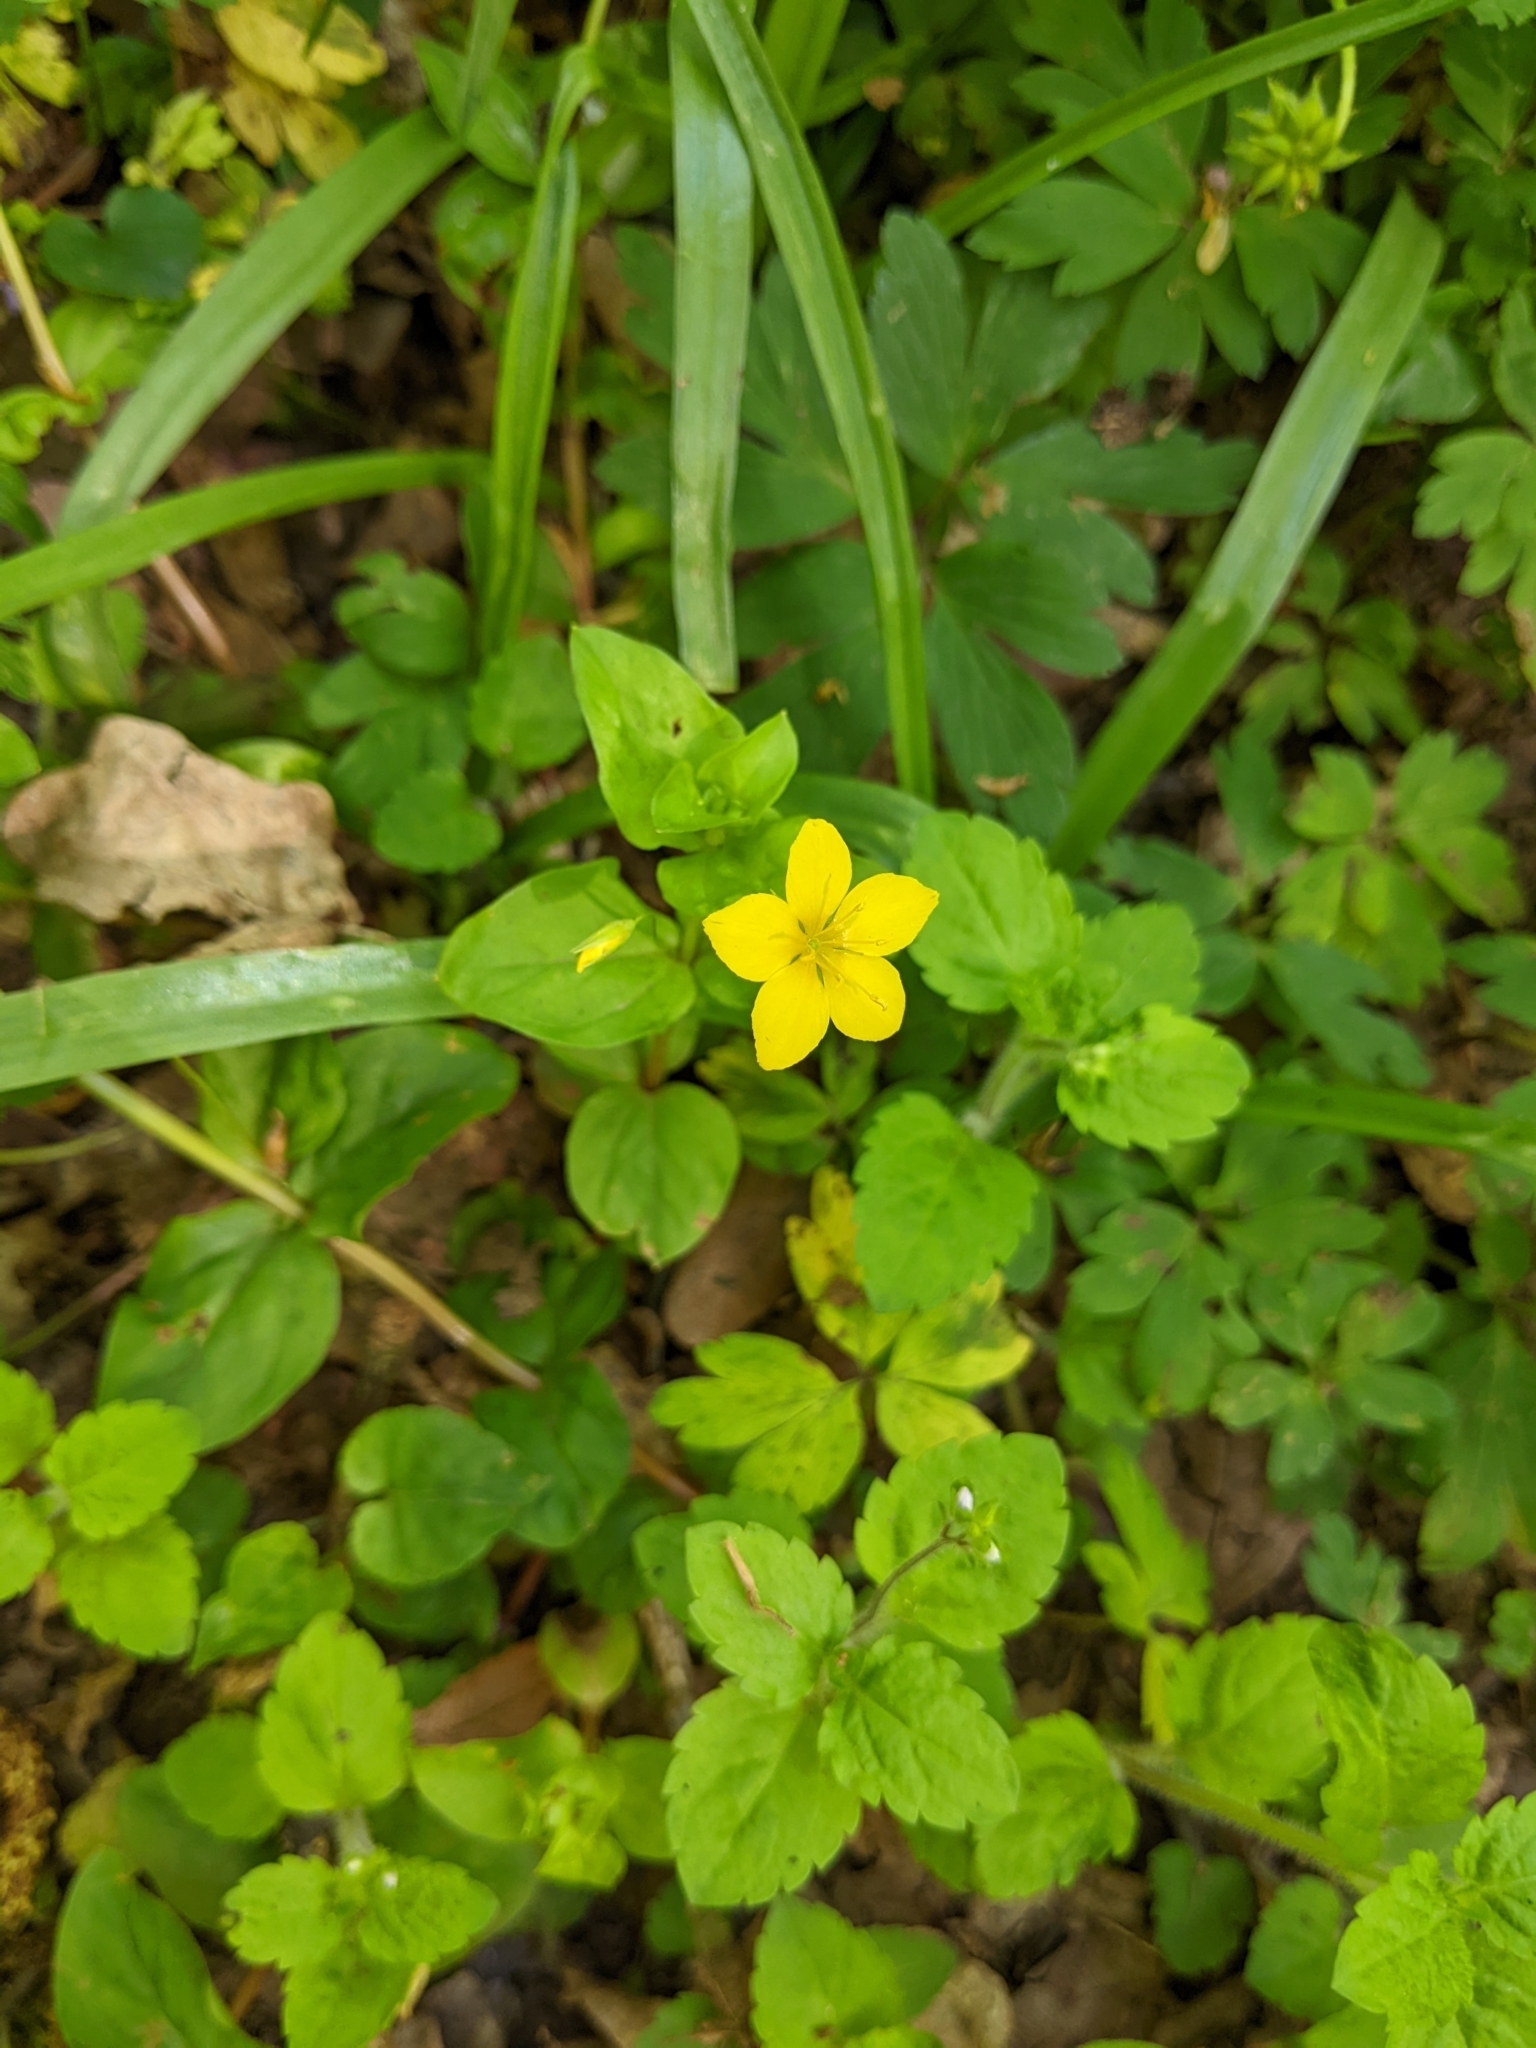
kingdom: Plantae
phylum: Tracheophyta
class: Magnoliopsida
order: Ericales
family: Primulaceae
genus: Lysimachia
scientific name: Lysimachia nemorum
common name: Yellow pimpernel
